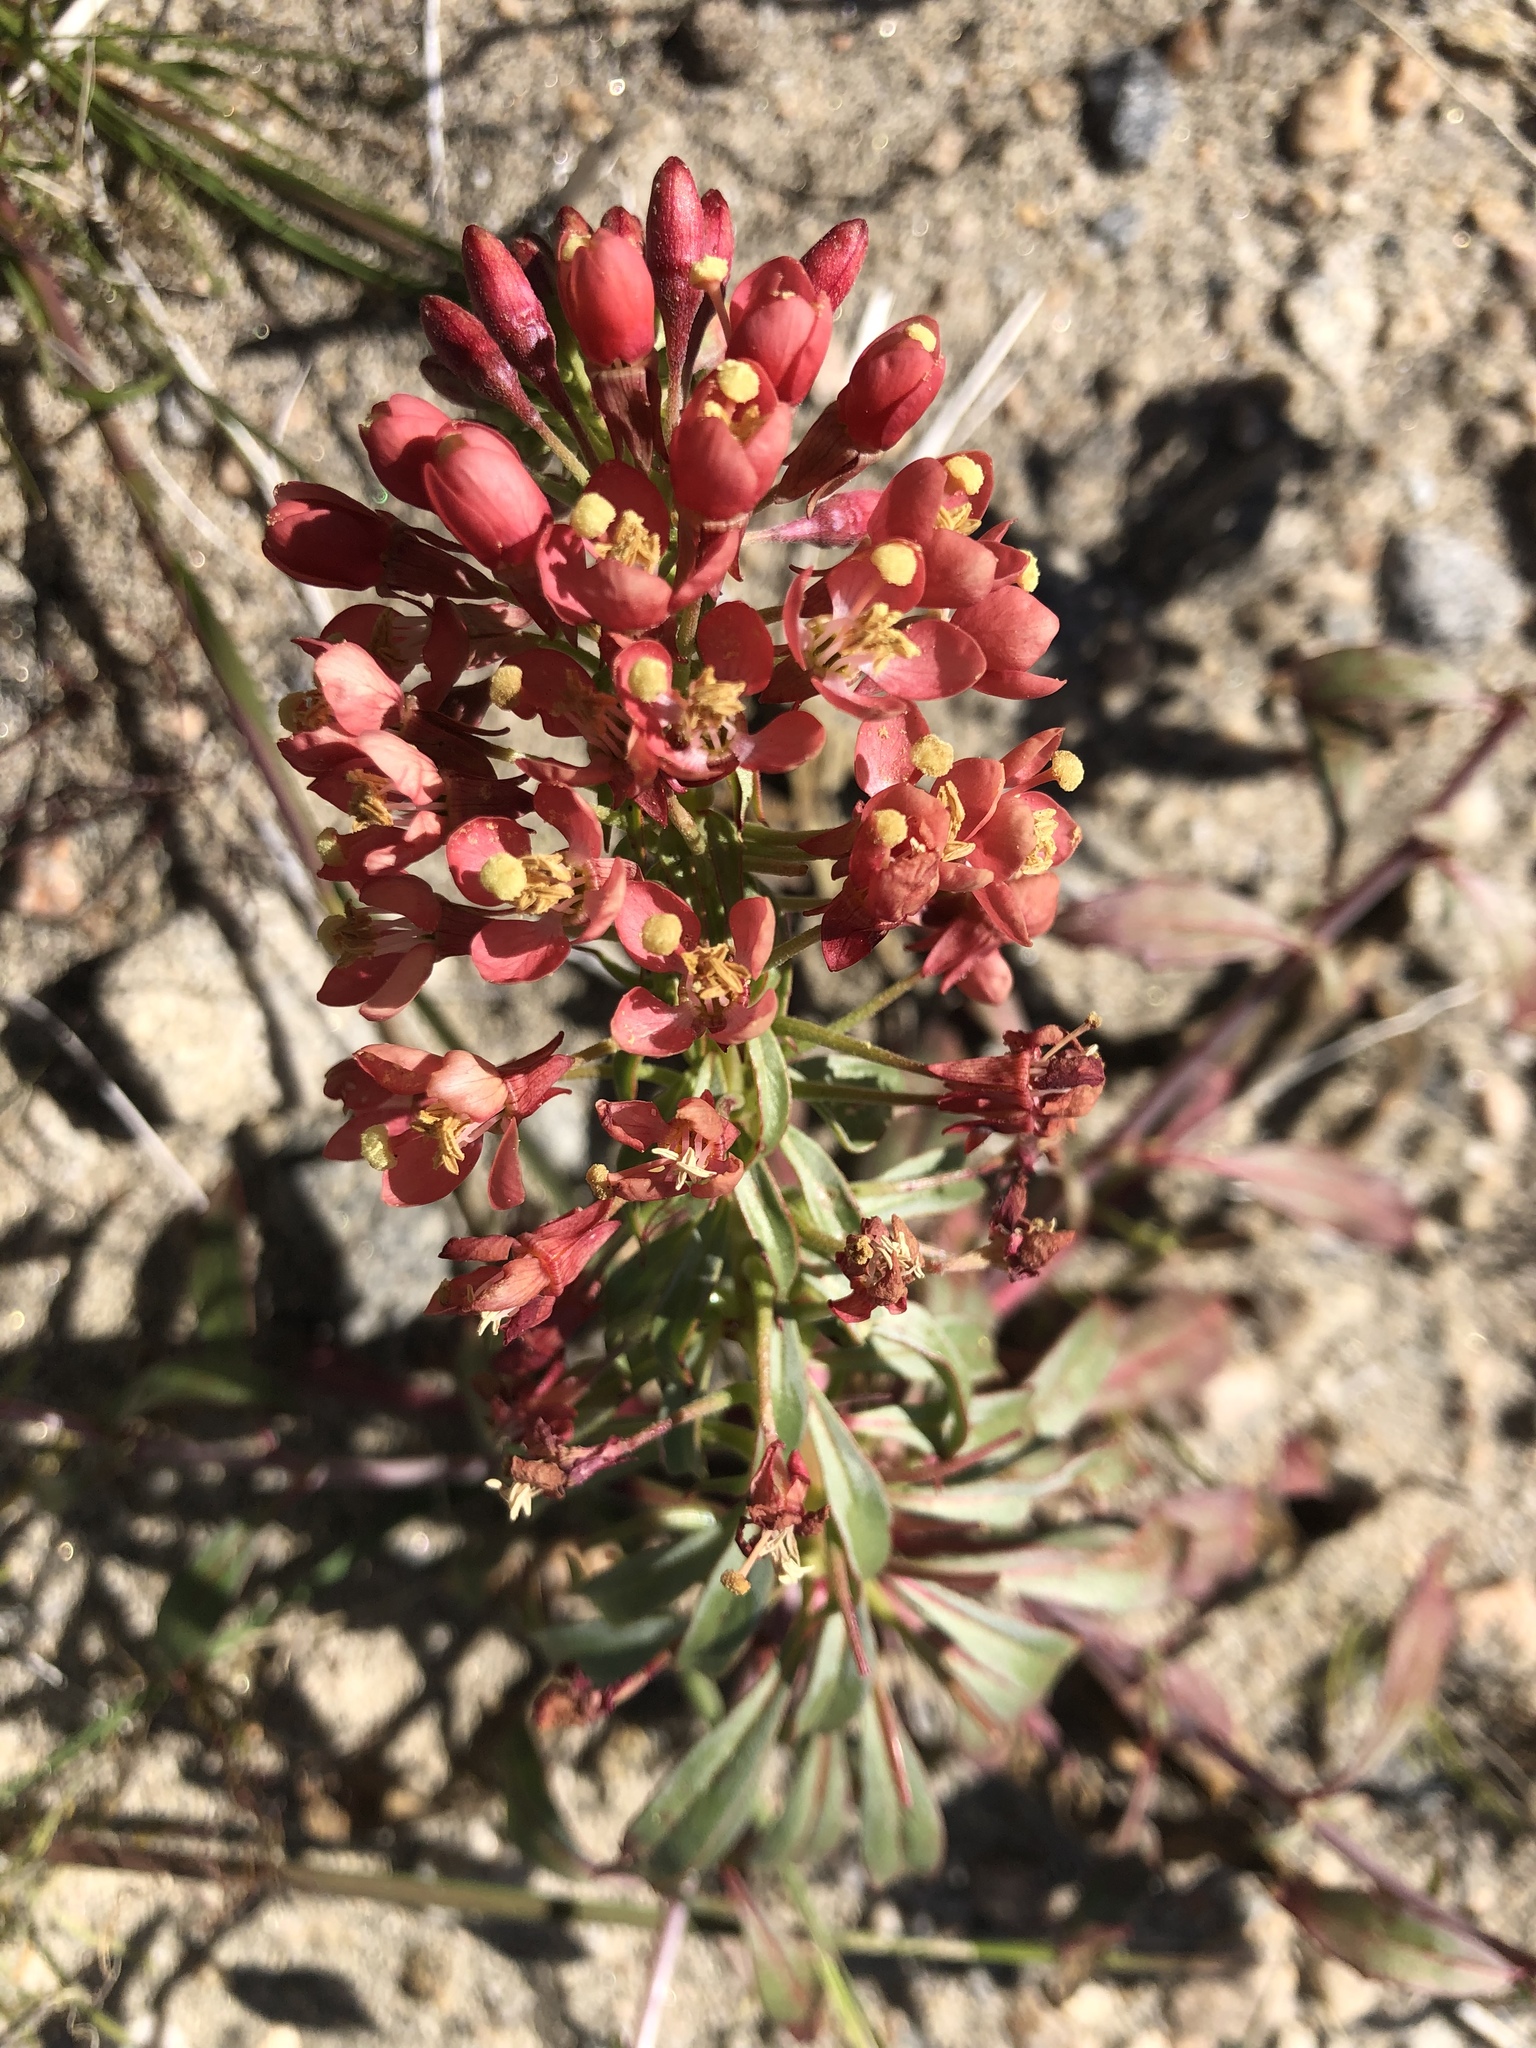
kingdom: Plantae
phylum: Tracheophyta
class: Magnoliopsida
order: Myrtales
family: Onagraceae
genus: Eremothera
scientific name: Eremothera boothii
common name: Booth's evening primrose
